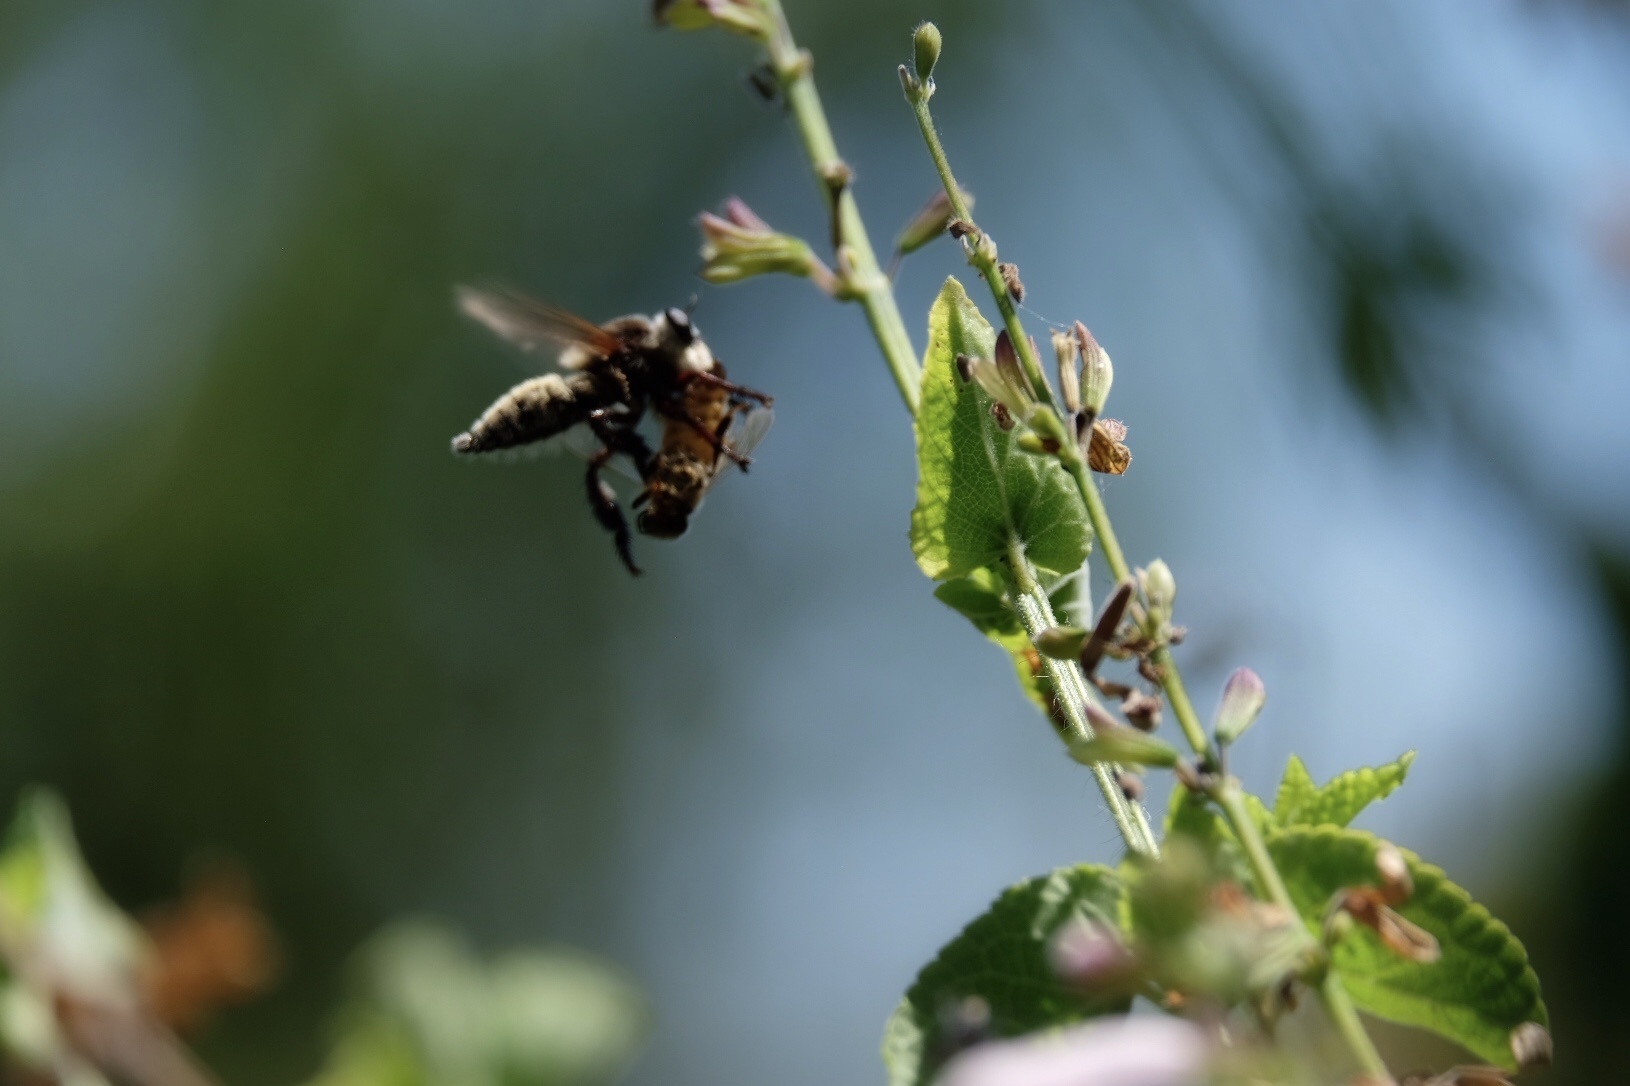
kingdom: Animalia
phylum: Arthropoda
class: Insecta
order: Diptera
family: Asilidae
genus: Mallophora
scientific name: Mallophora fautrix
